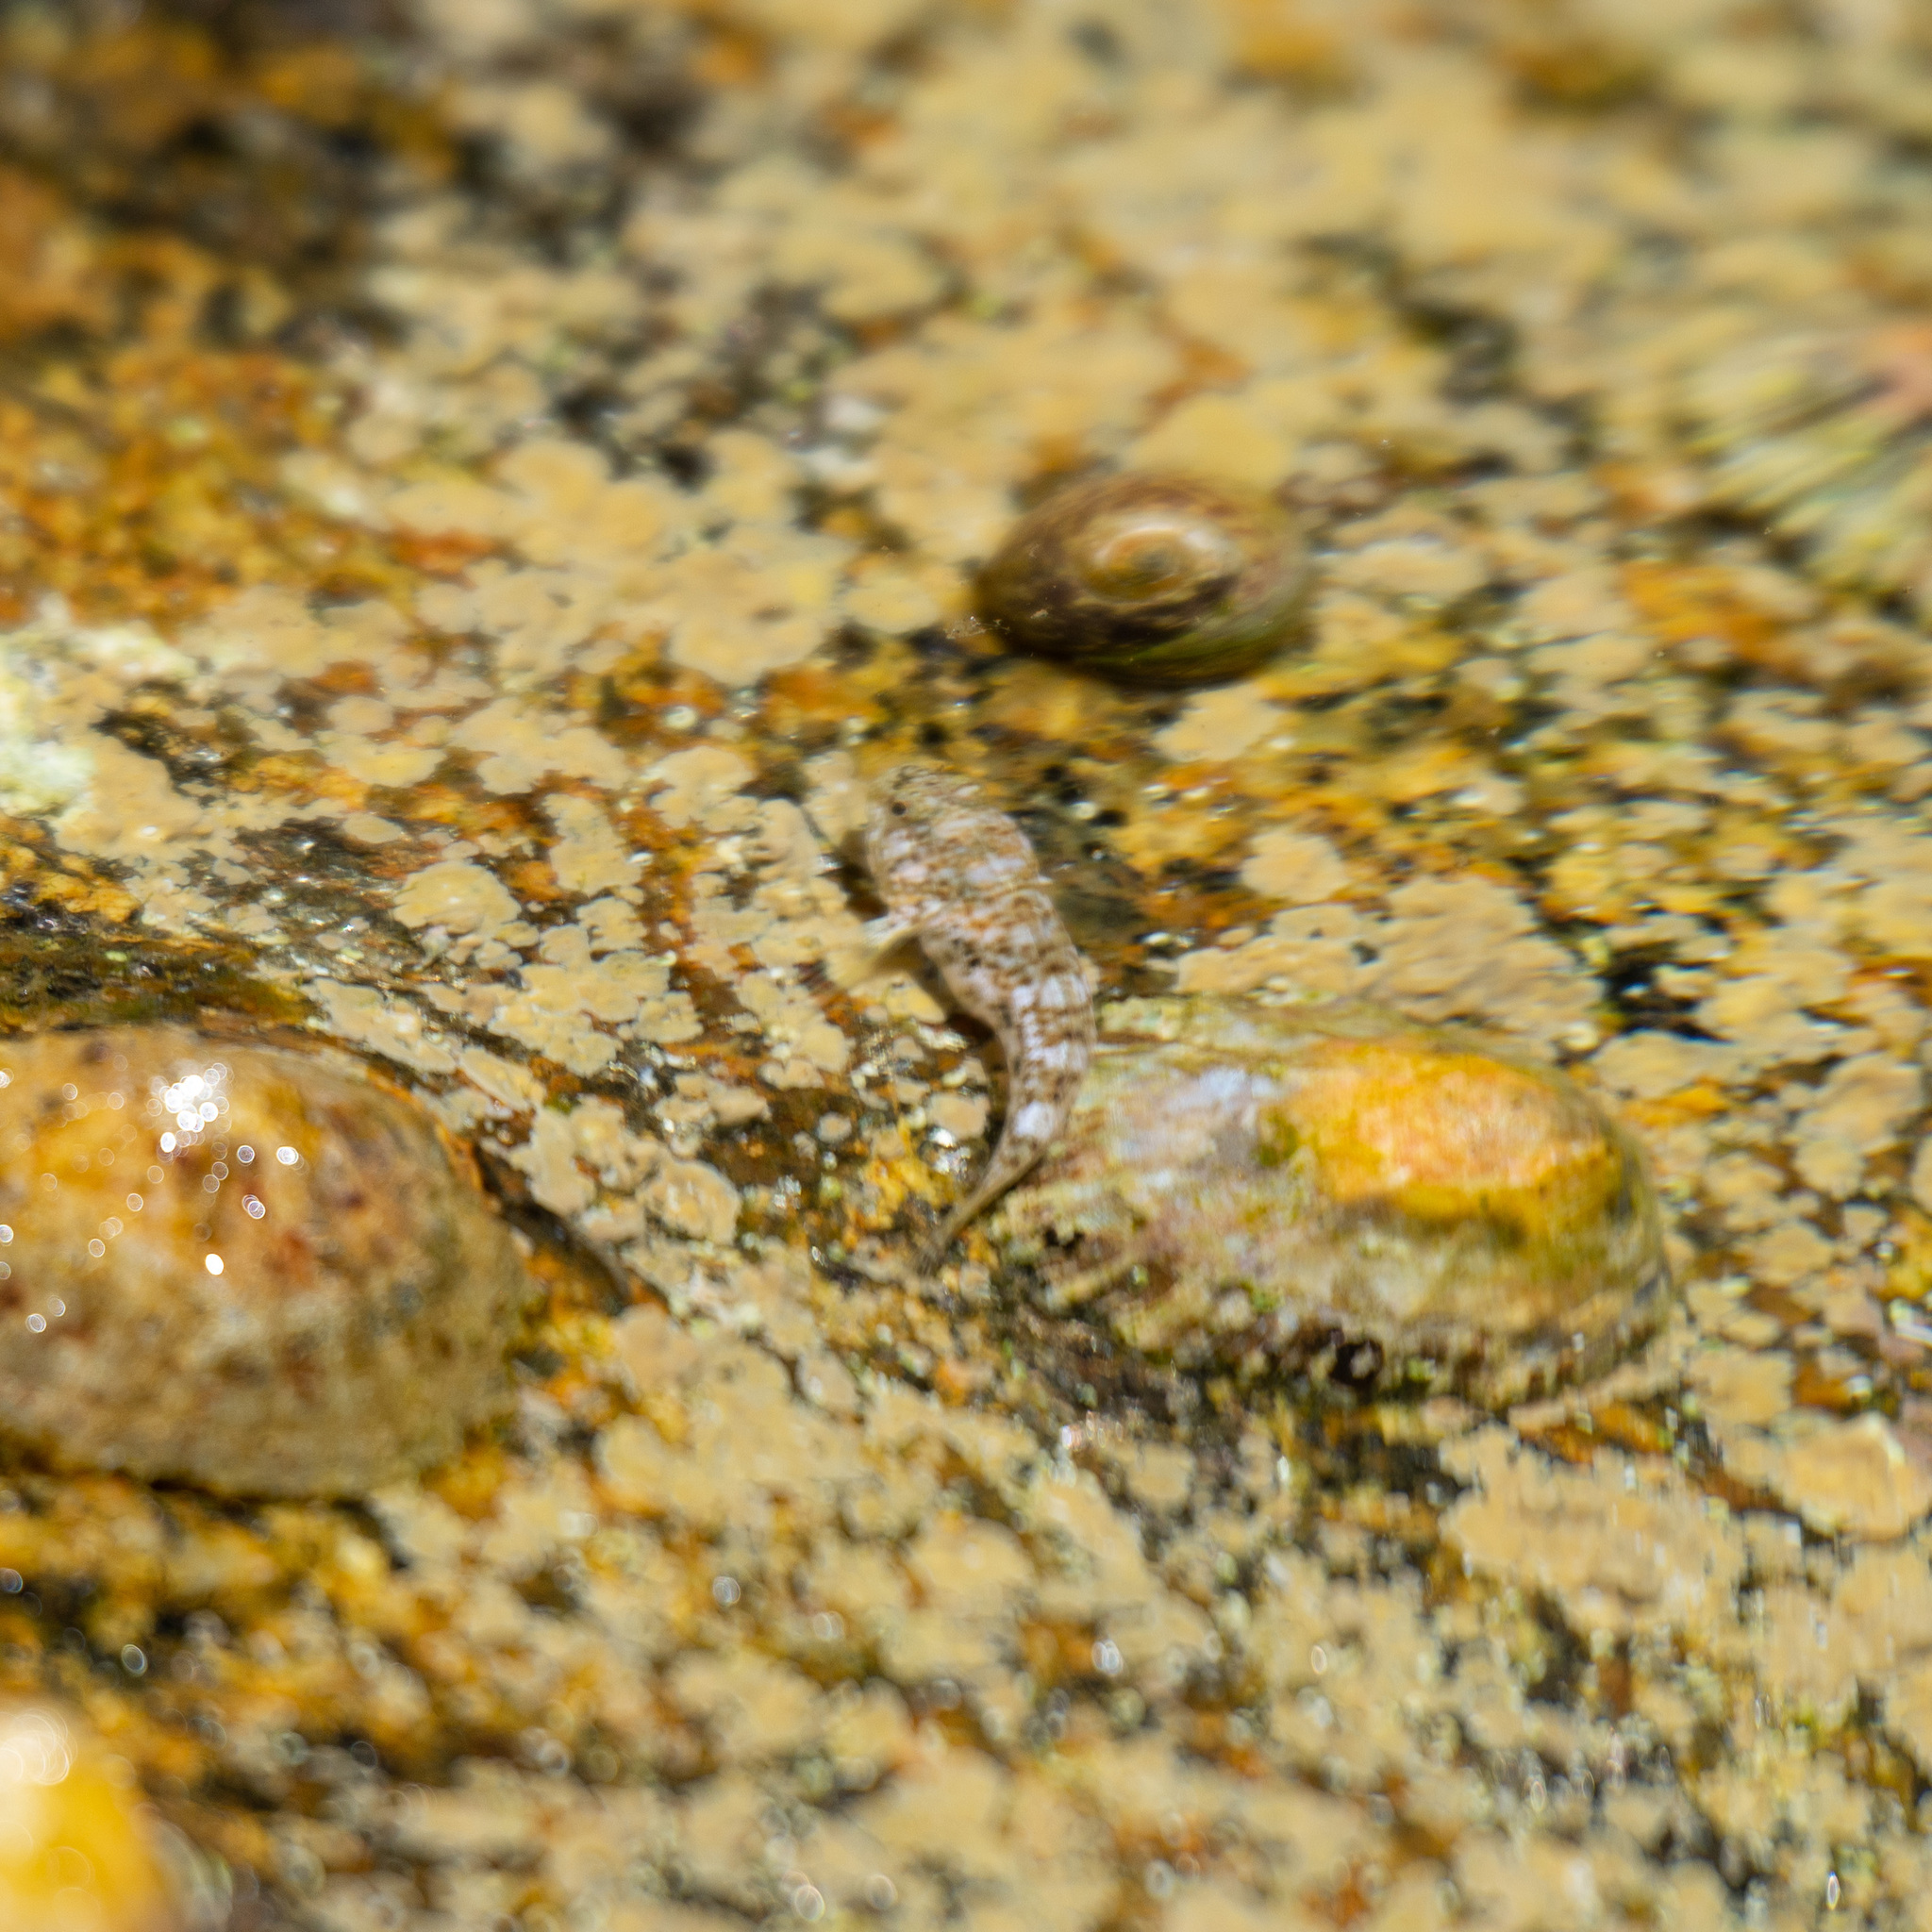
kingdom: Animalia
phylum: Chordata
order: Perciformes
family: Gobiidae
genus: Gobius
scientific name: Gobius cobitis
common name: Giant goby
